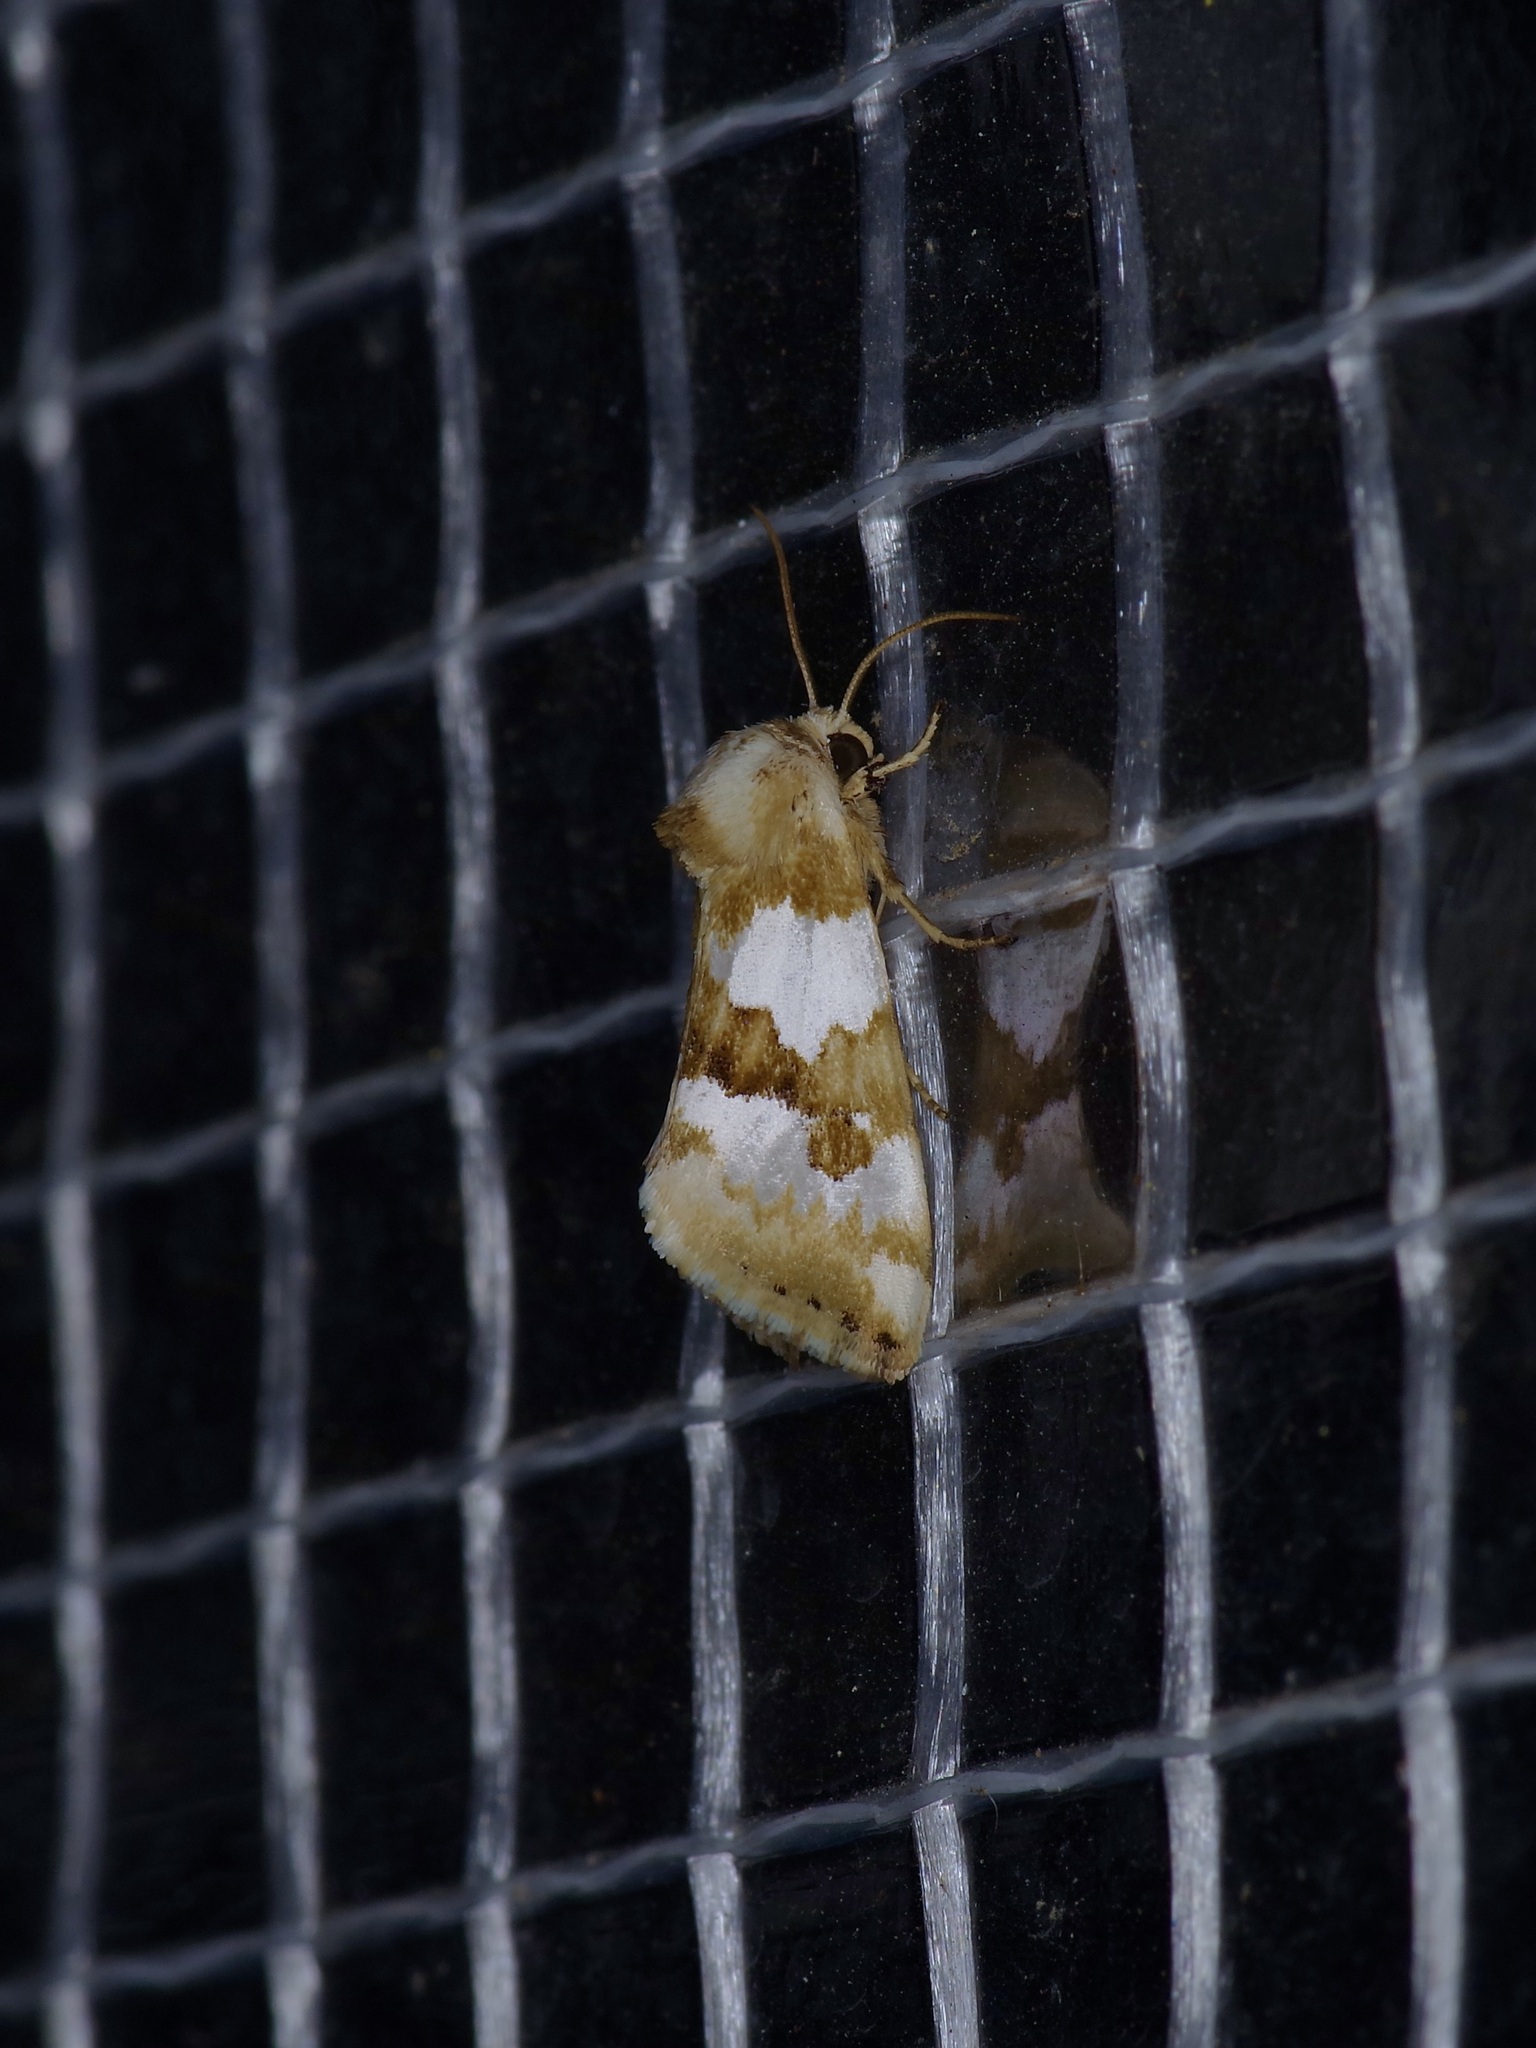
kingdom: Animalia
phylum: Arthropoda
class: Insecta
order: Lepidoptera
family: Noctuidae
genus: Schinia
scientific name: Schinia chrysellus
